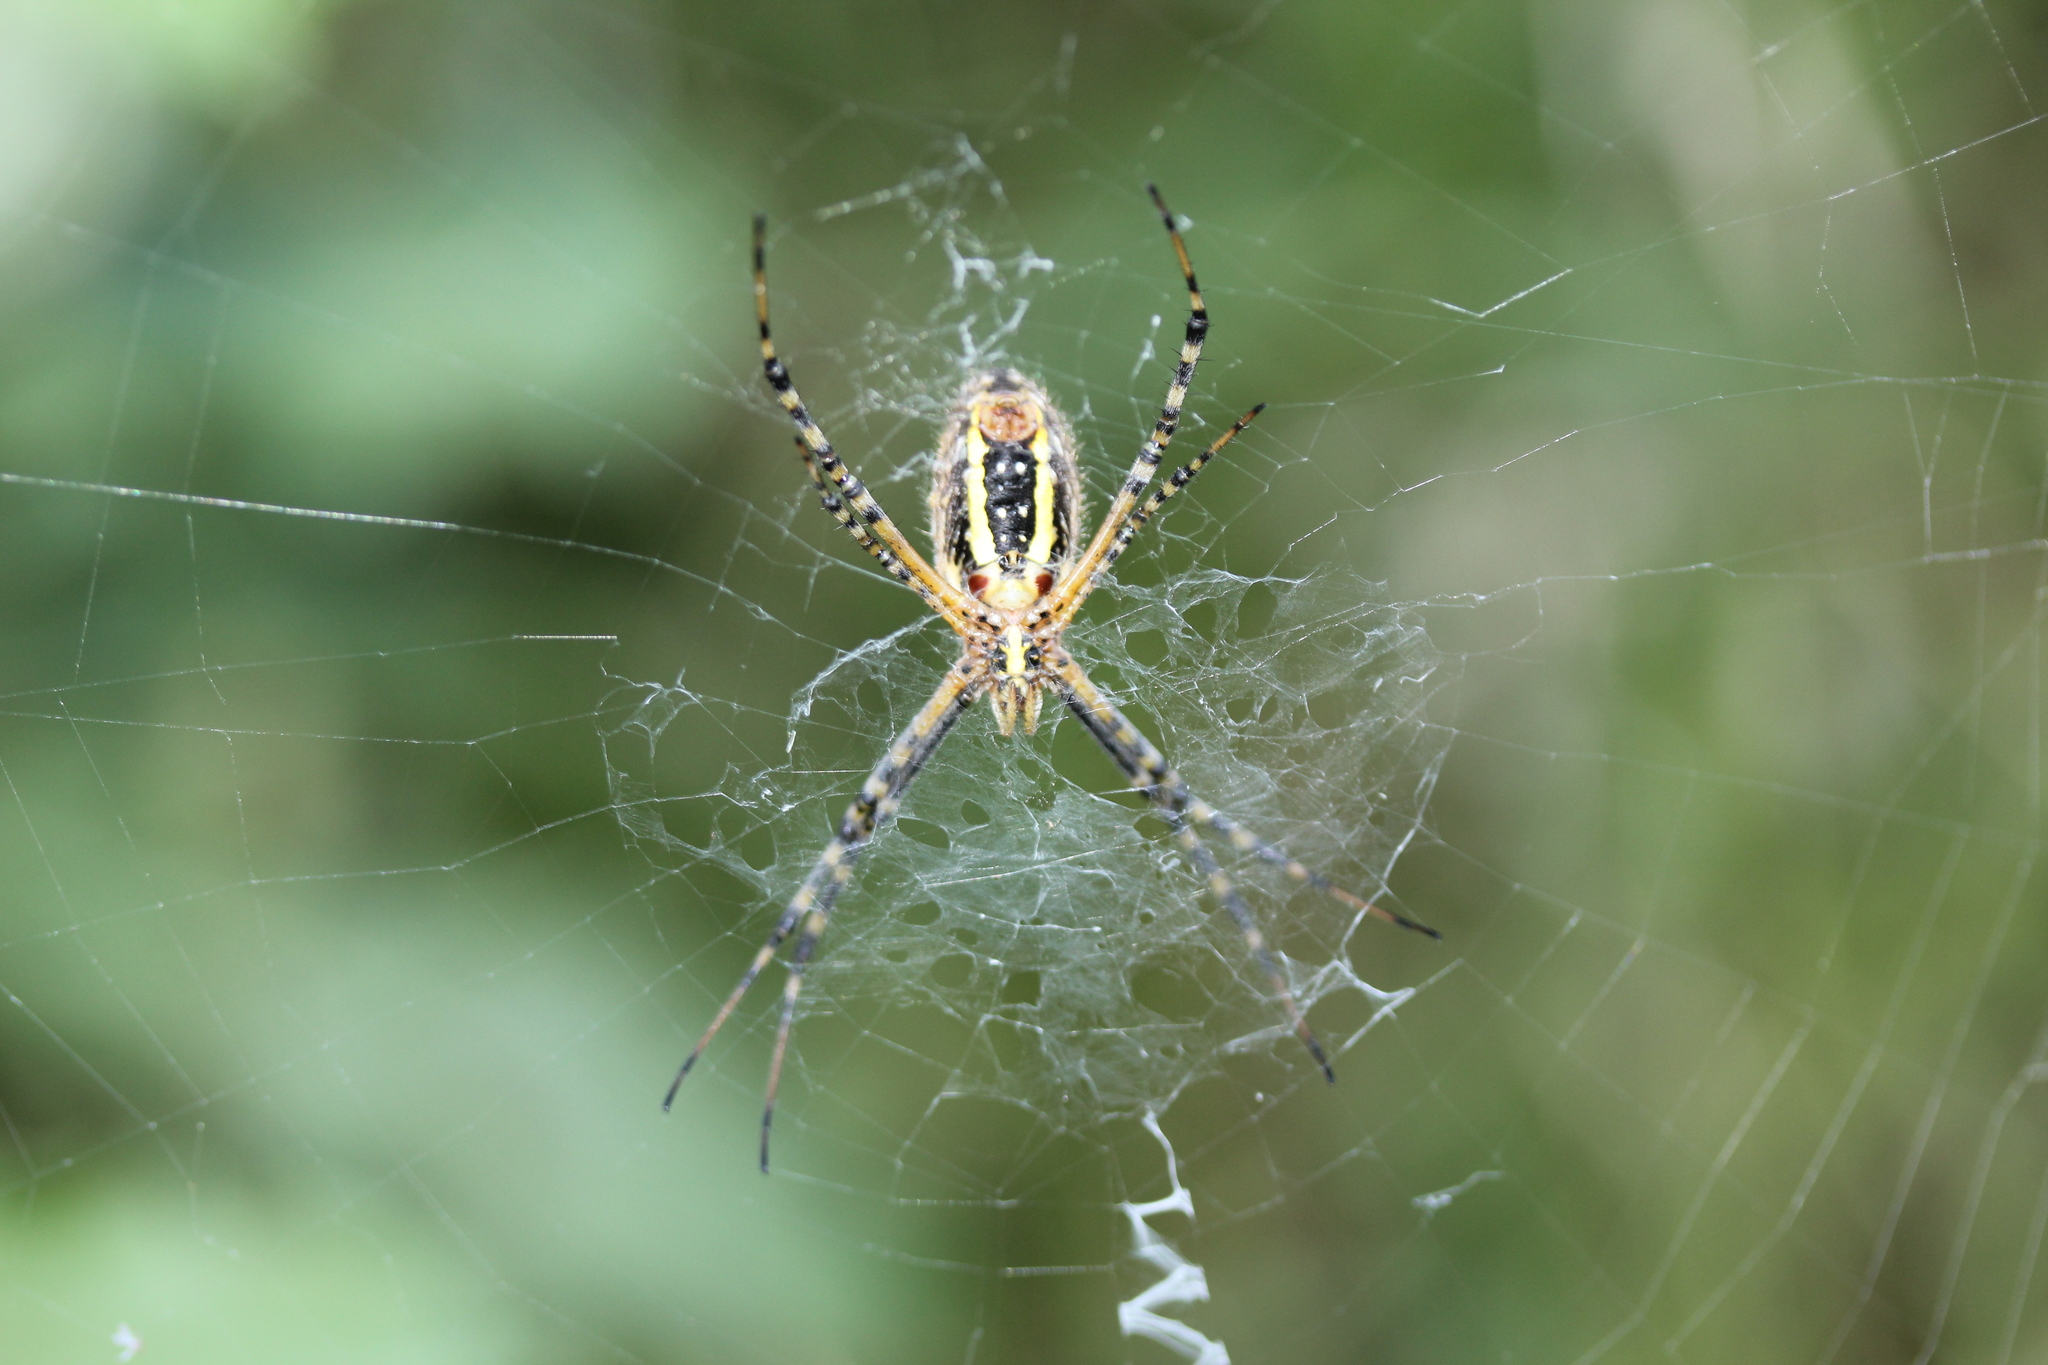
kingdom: Animalia
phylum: Arthropoda
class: Arachnida
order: Araneae
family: Araneidae
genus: Argiope
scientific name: Argiope trifasciata
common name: Banded garden spider
